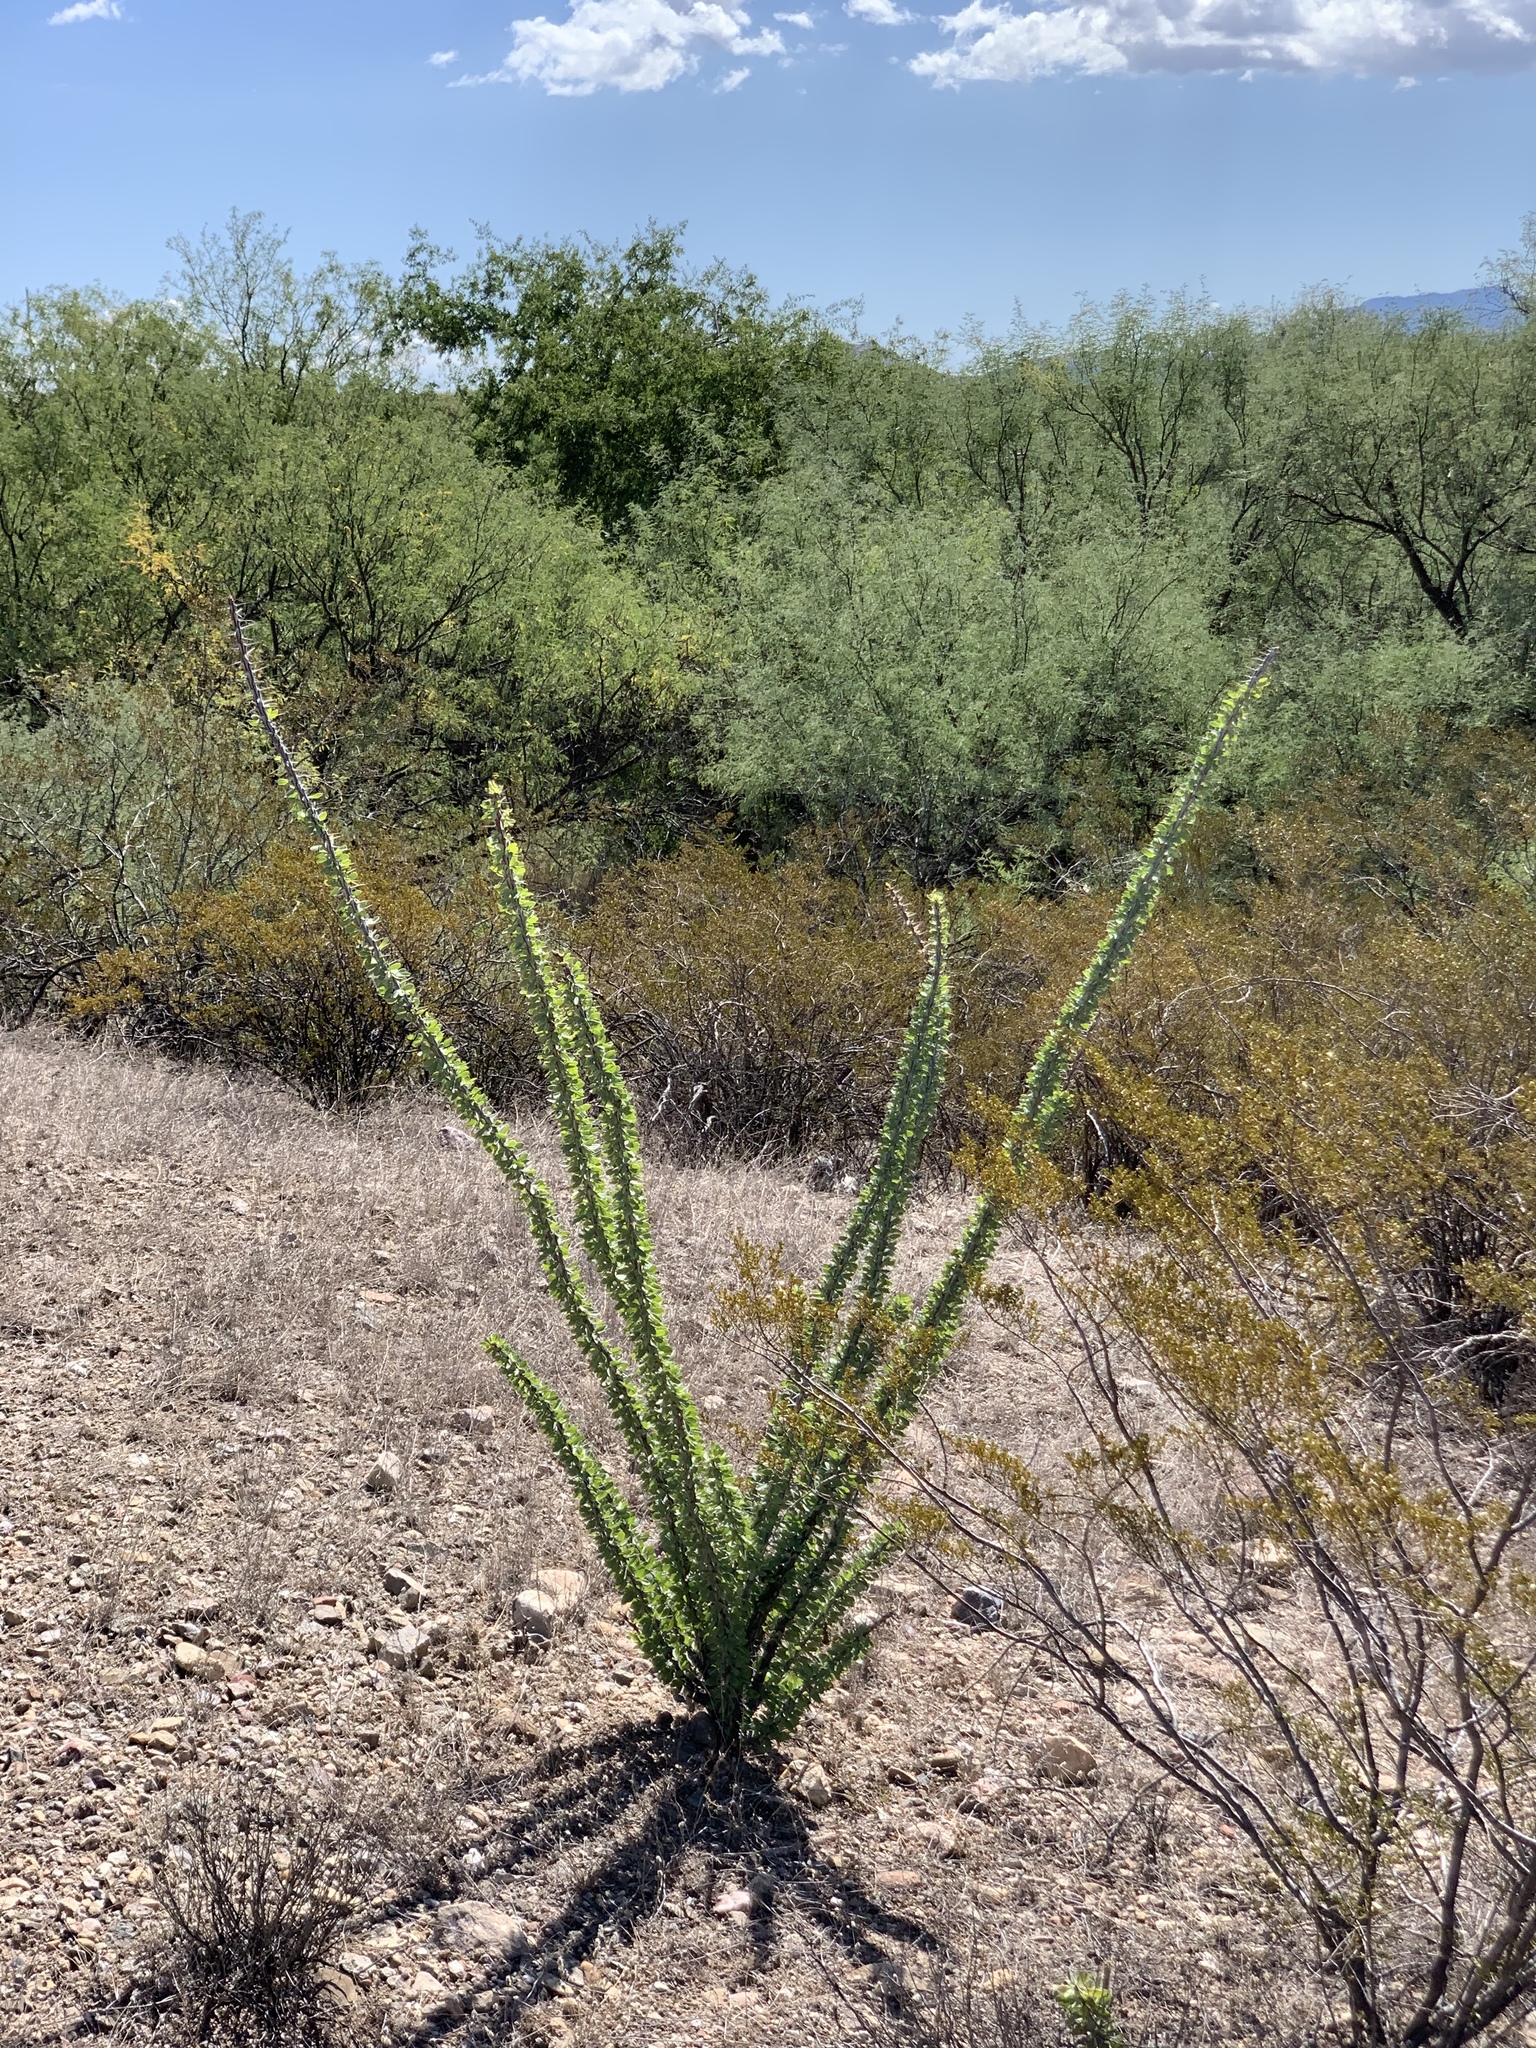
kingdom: Plantae
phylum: Tracheophyta
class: Magnoliopsida
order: Ericales
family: Fouquieriaceae
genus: Fouquieria
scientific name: Fouquieria splendens
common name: Vine-cactus
